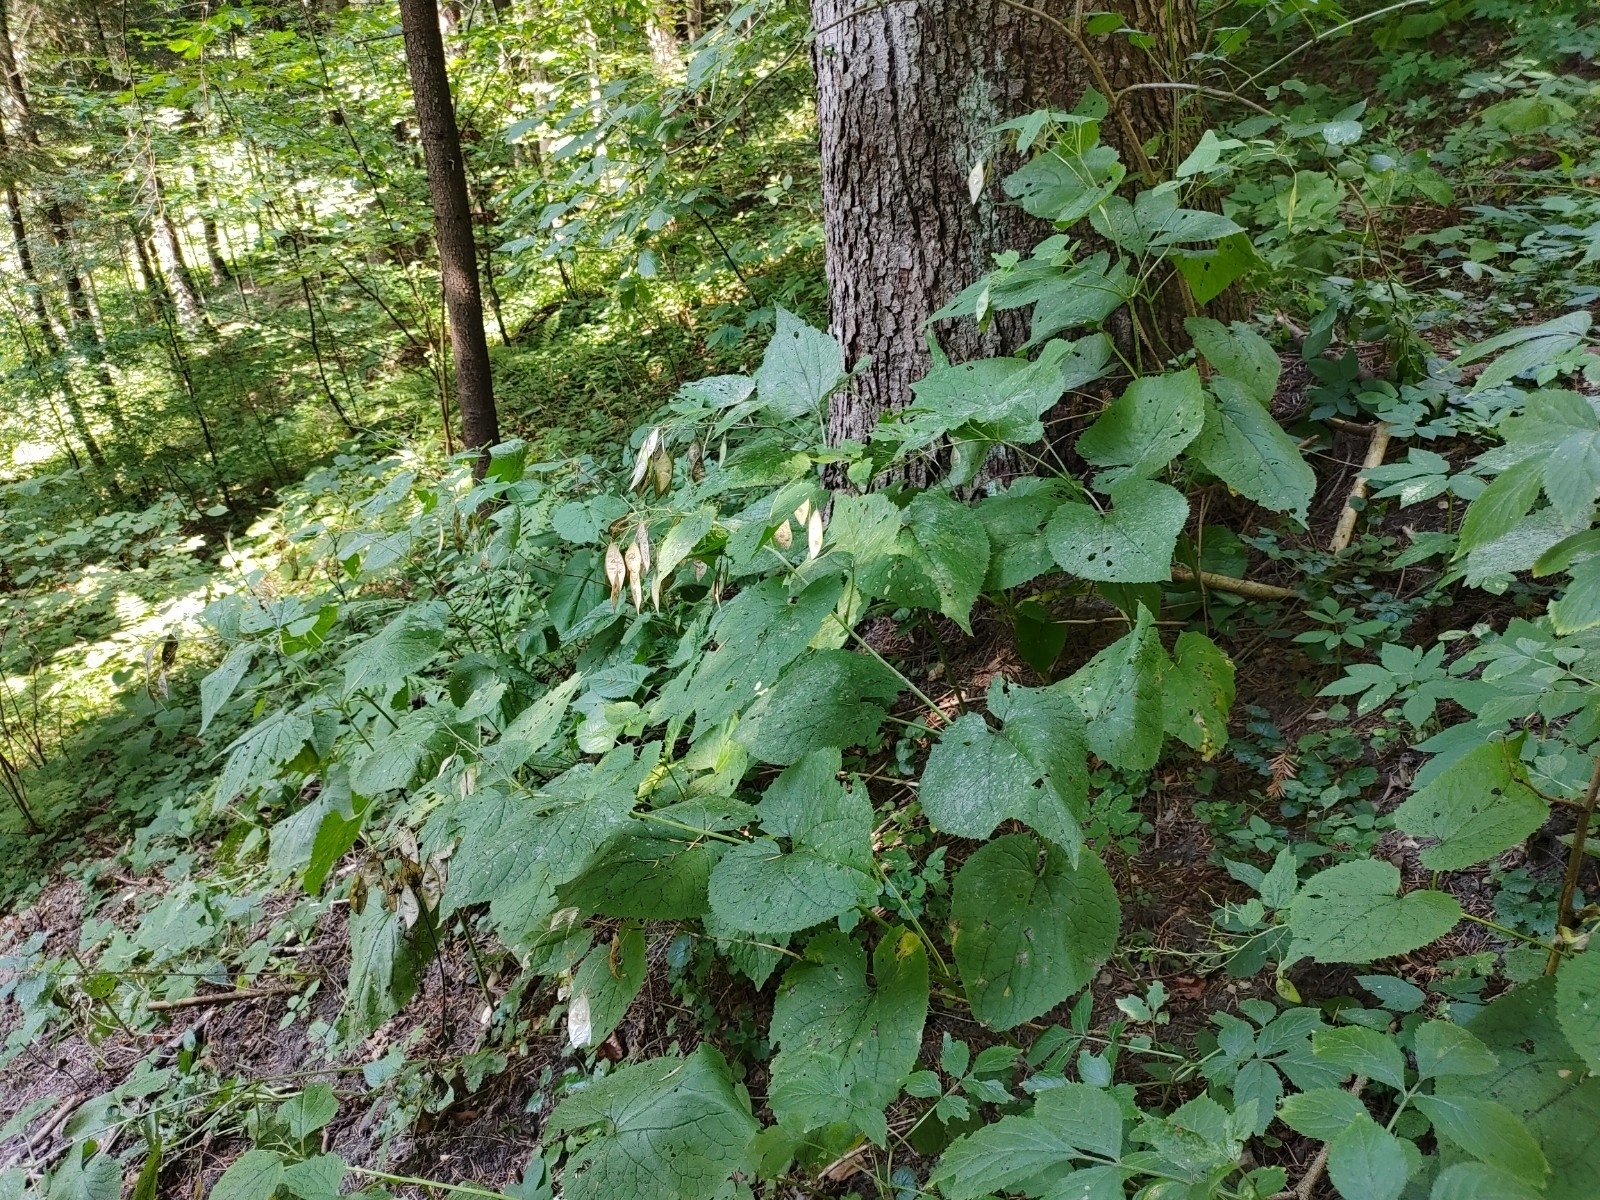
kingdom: Plantae
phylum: Tracheophyta
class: Magnoliopsida
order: Brassicales
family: Brassicaceae
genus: Lunaria
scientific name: Lunaria rediviva
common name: Perennial honesty
